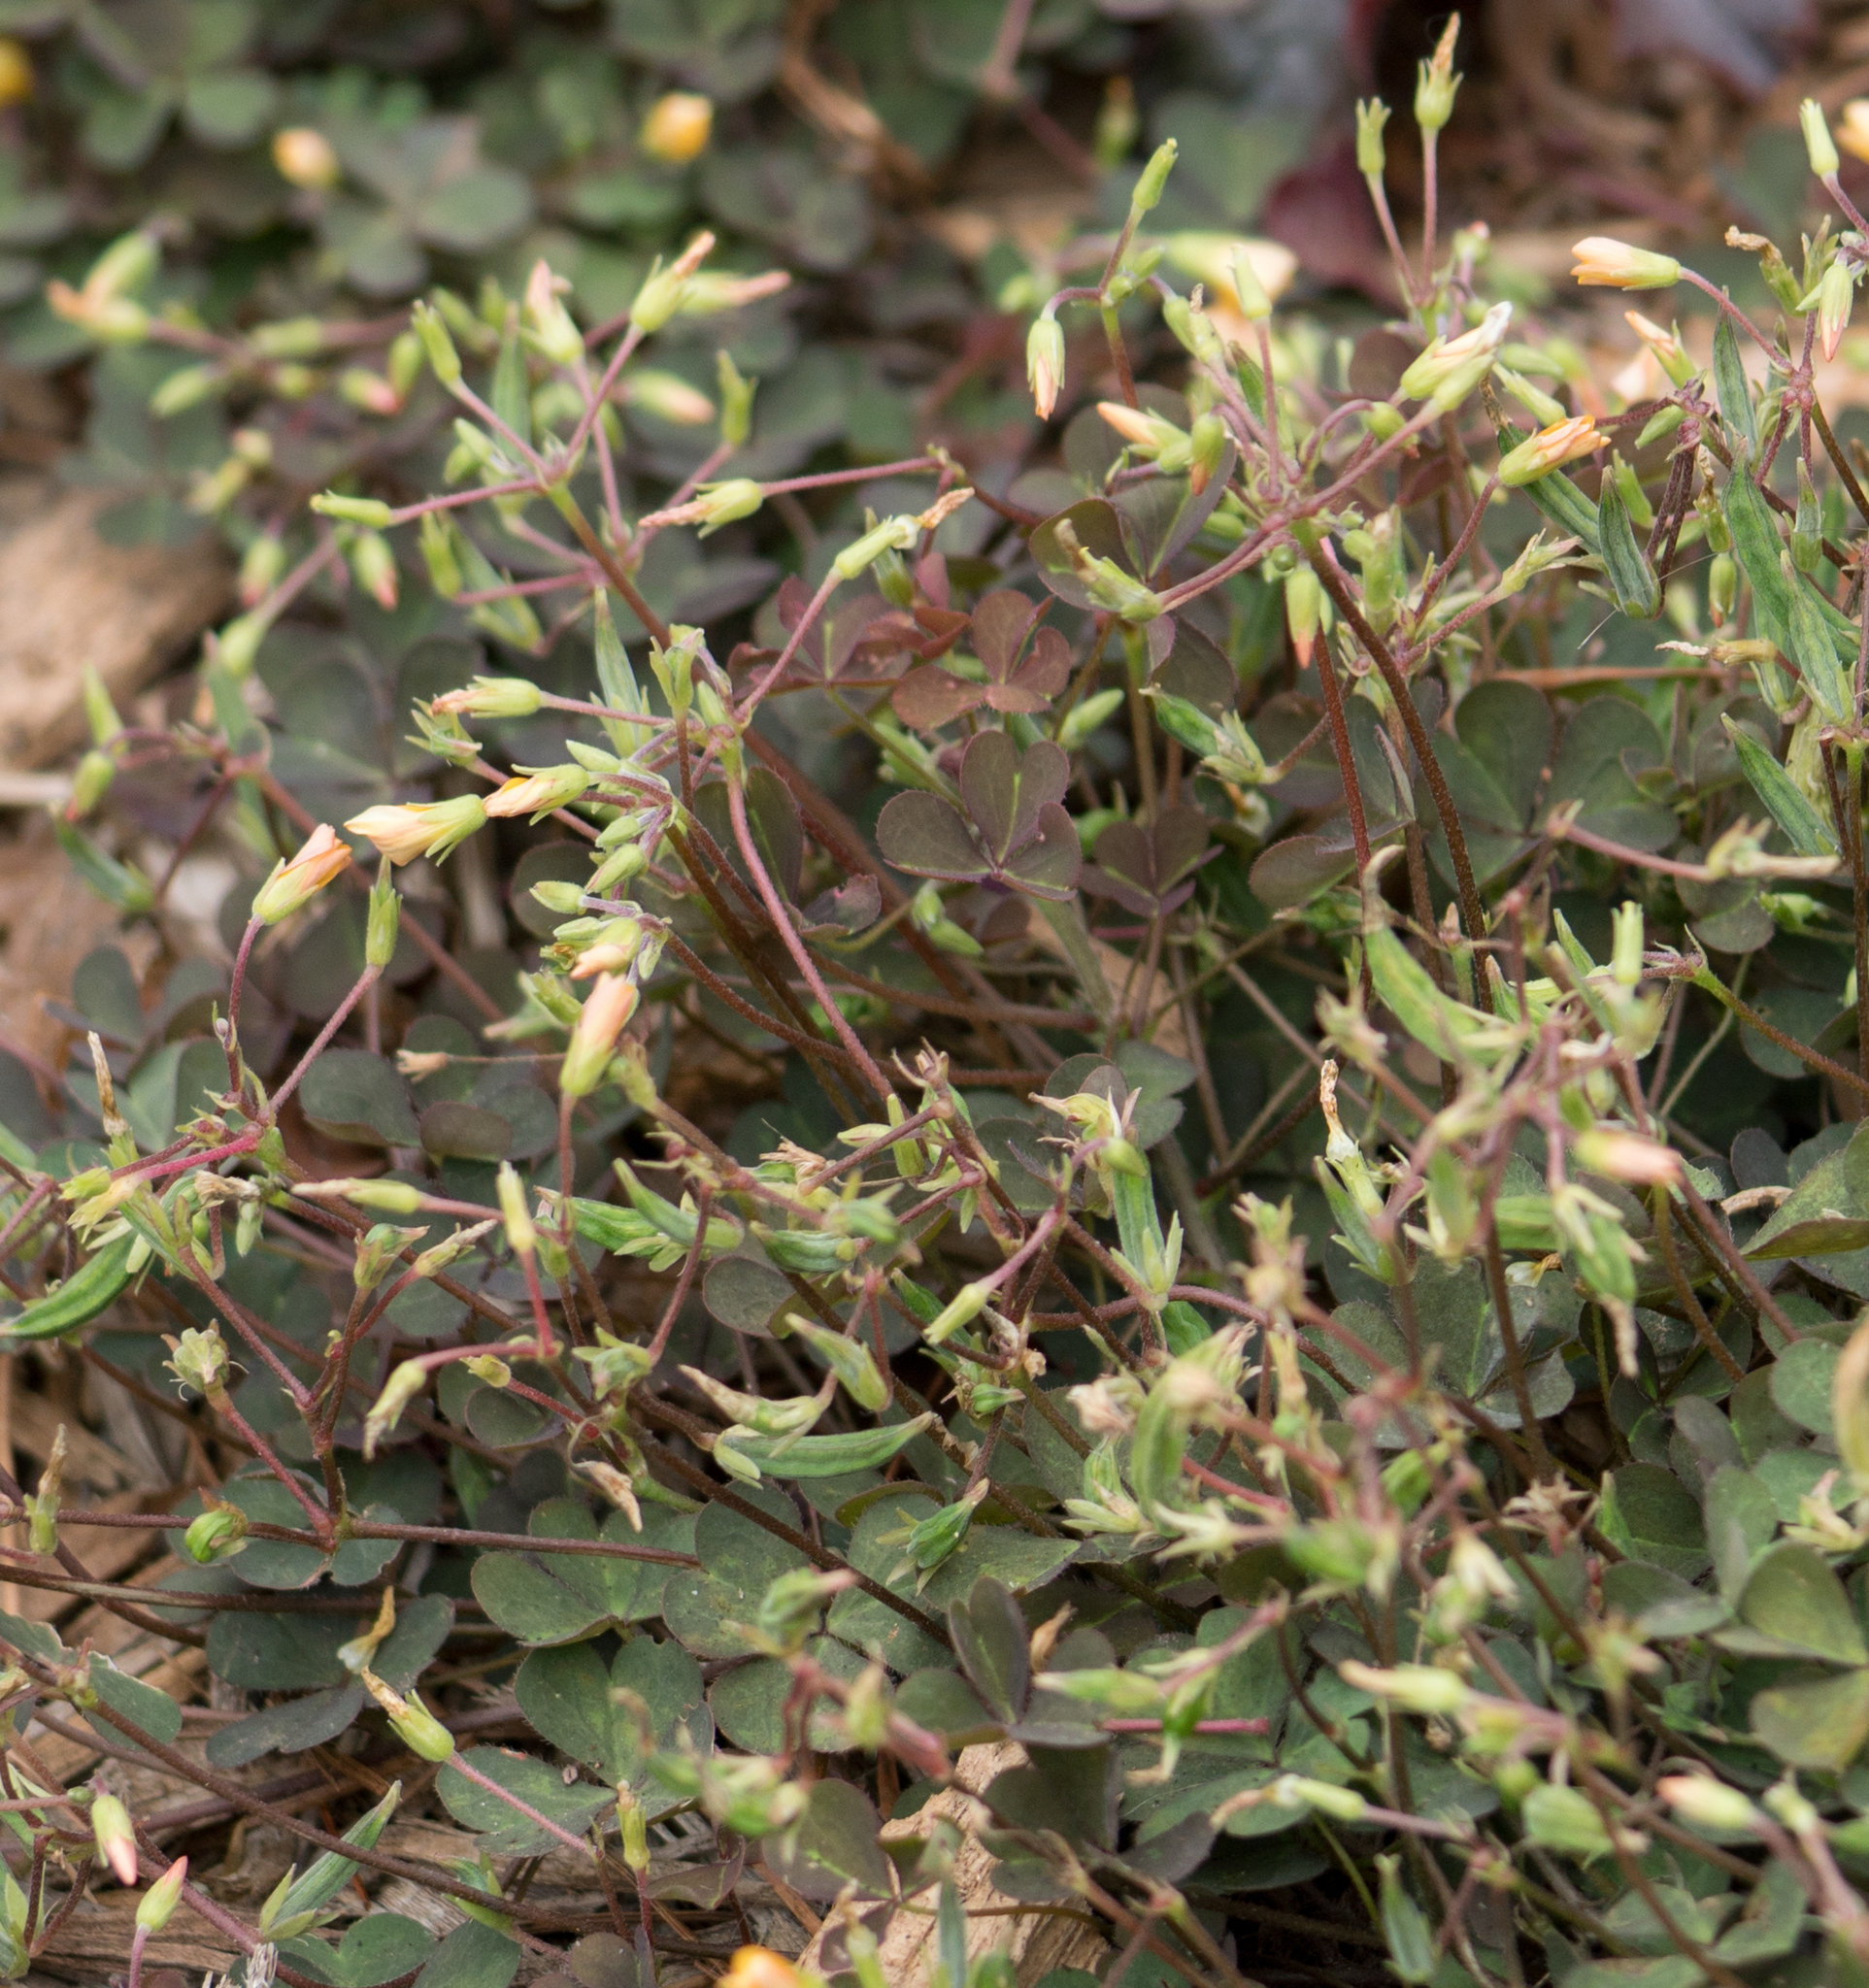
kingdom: Plantae
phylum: Tracheophyta
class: Magnoliopsida
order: Oxalidales
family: Oxalidaceae
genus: Oxalis
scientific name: Oxalis corniculata
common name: Procumbent yellow-sorrel
